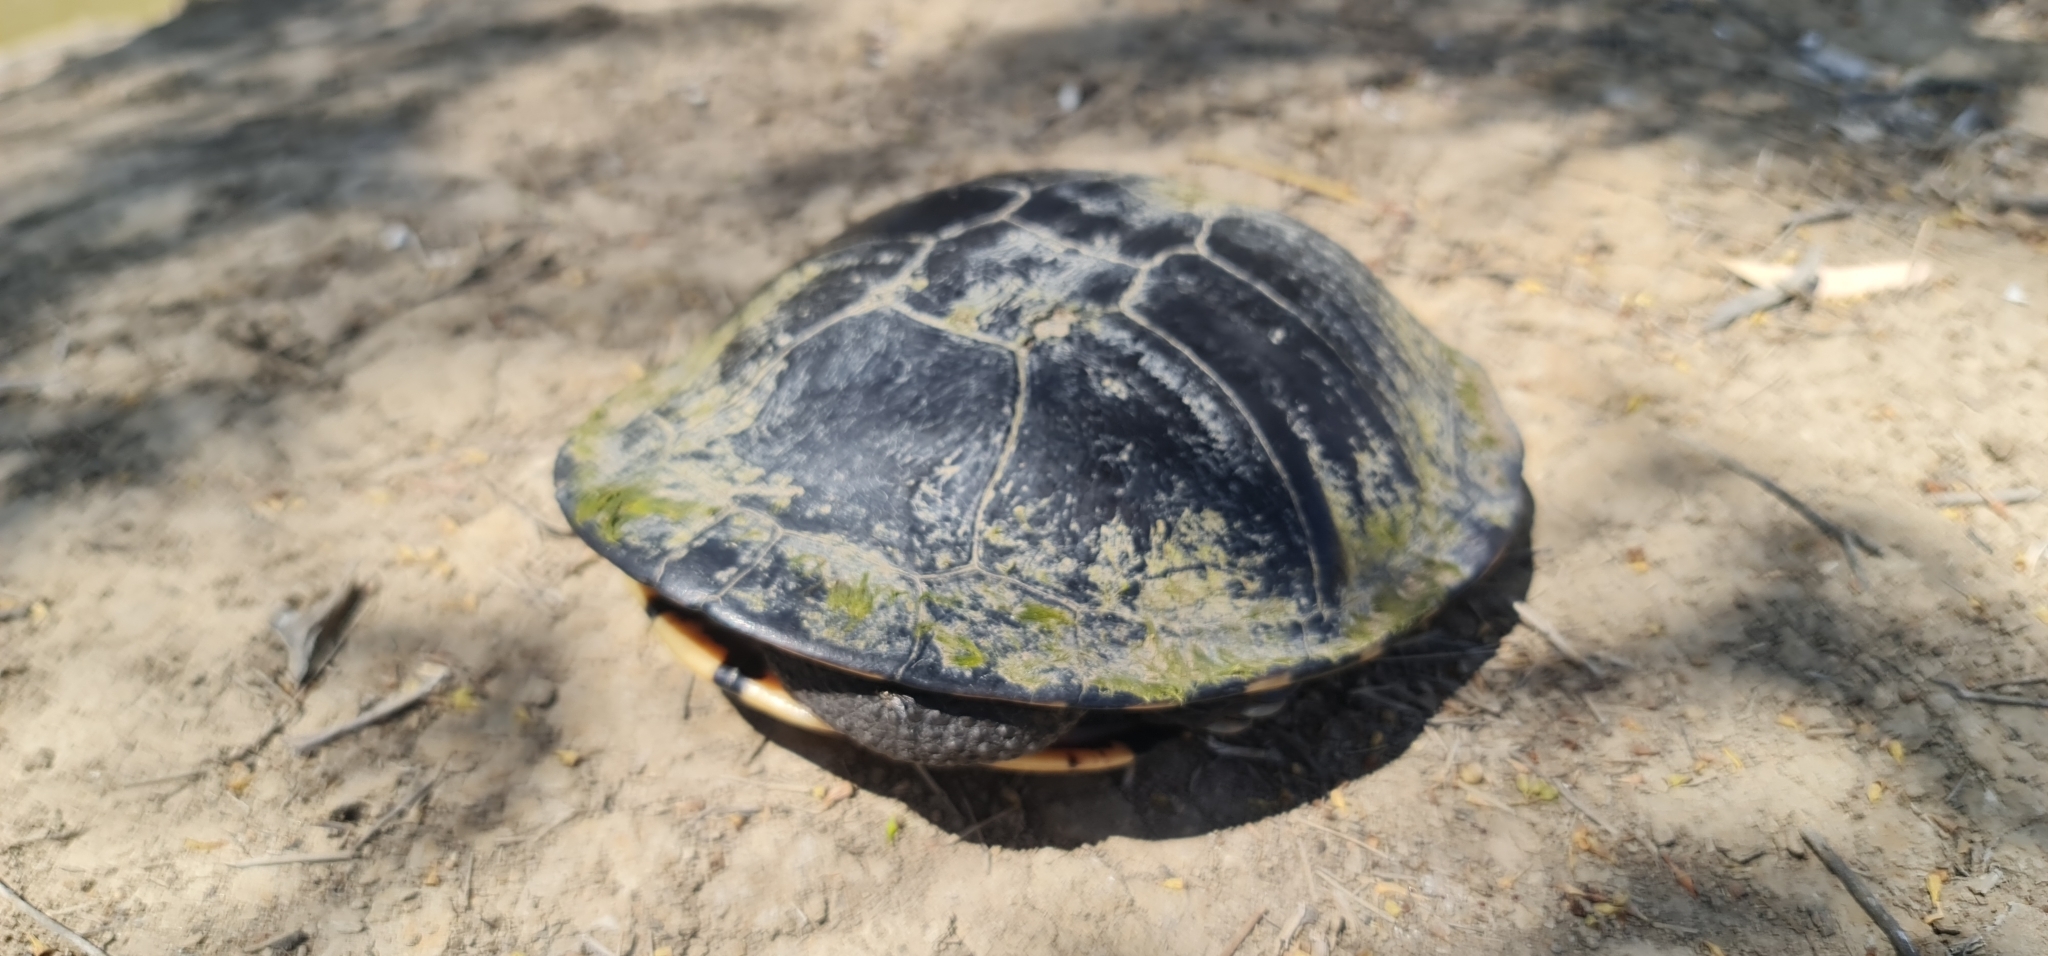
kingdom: Animalia
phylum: Chordata
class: Testudines
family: Chelidae
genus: Chelodina
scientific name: Chelodina longicollis
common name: Eastern snake-necked turtle
